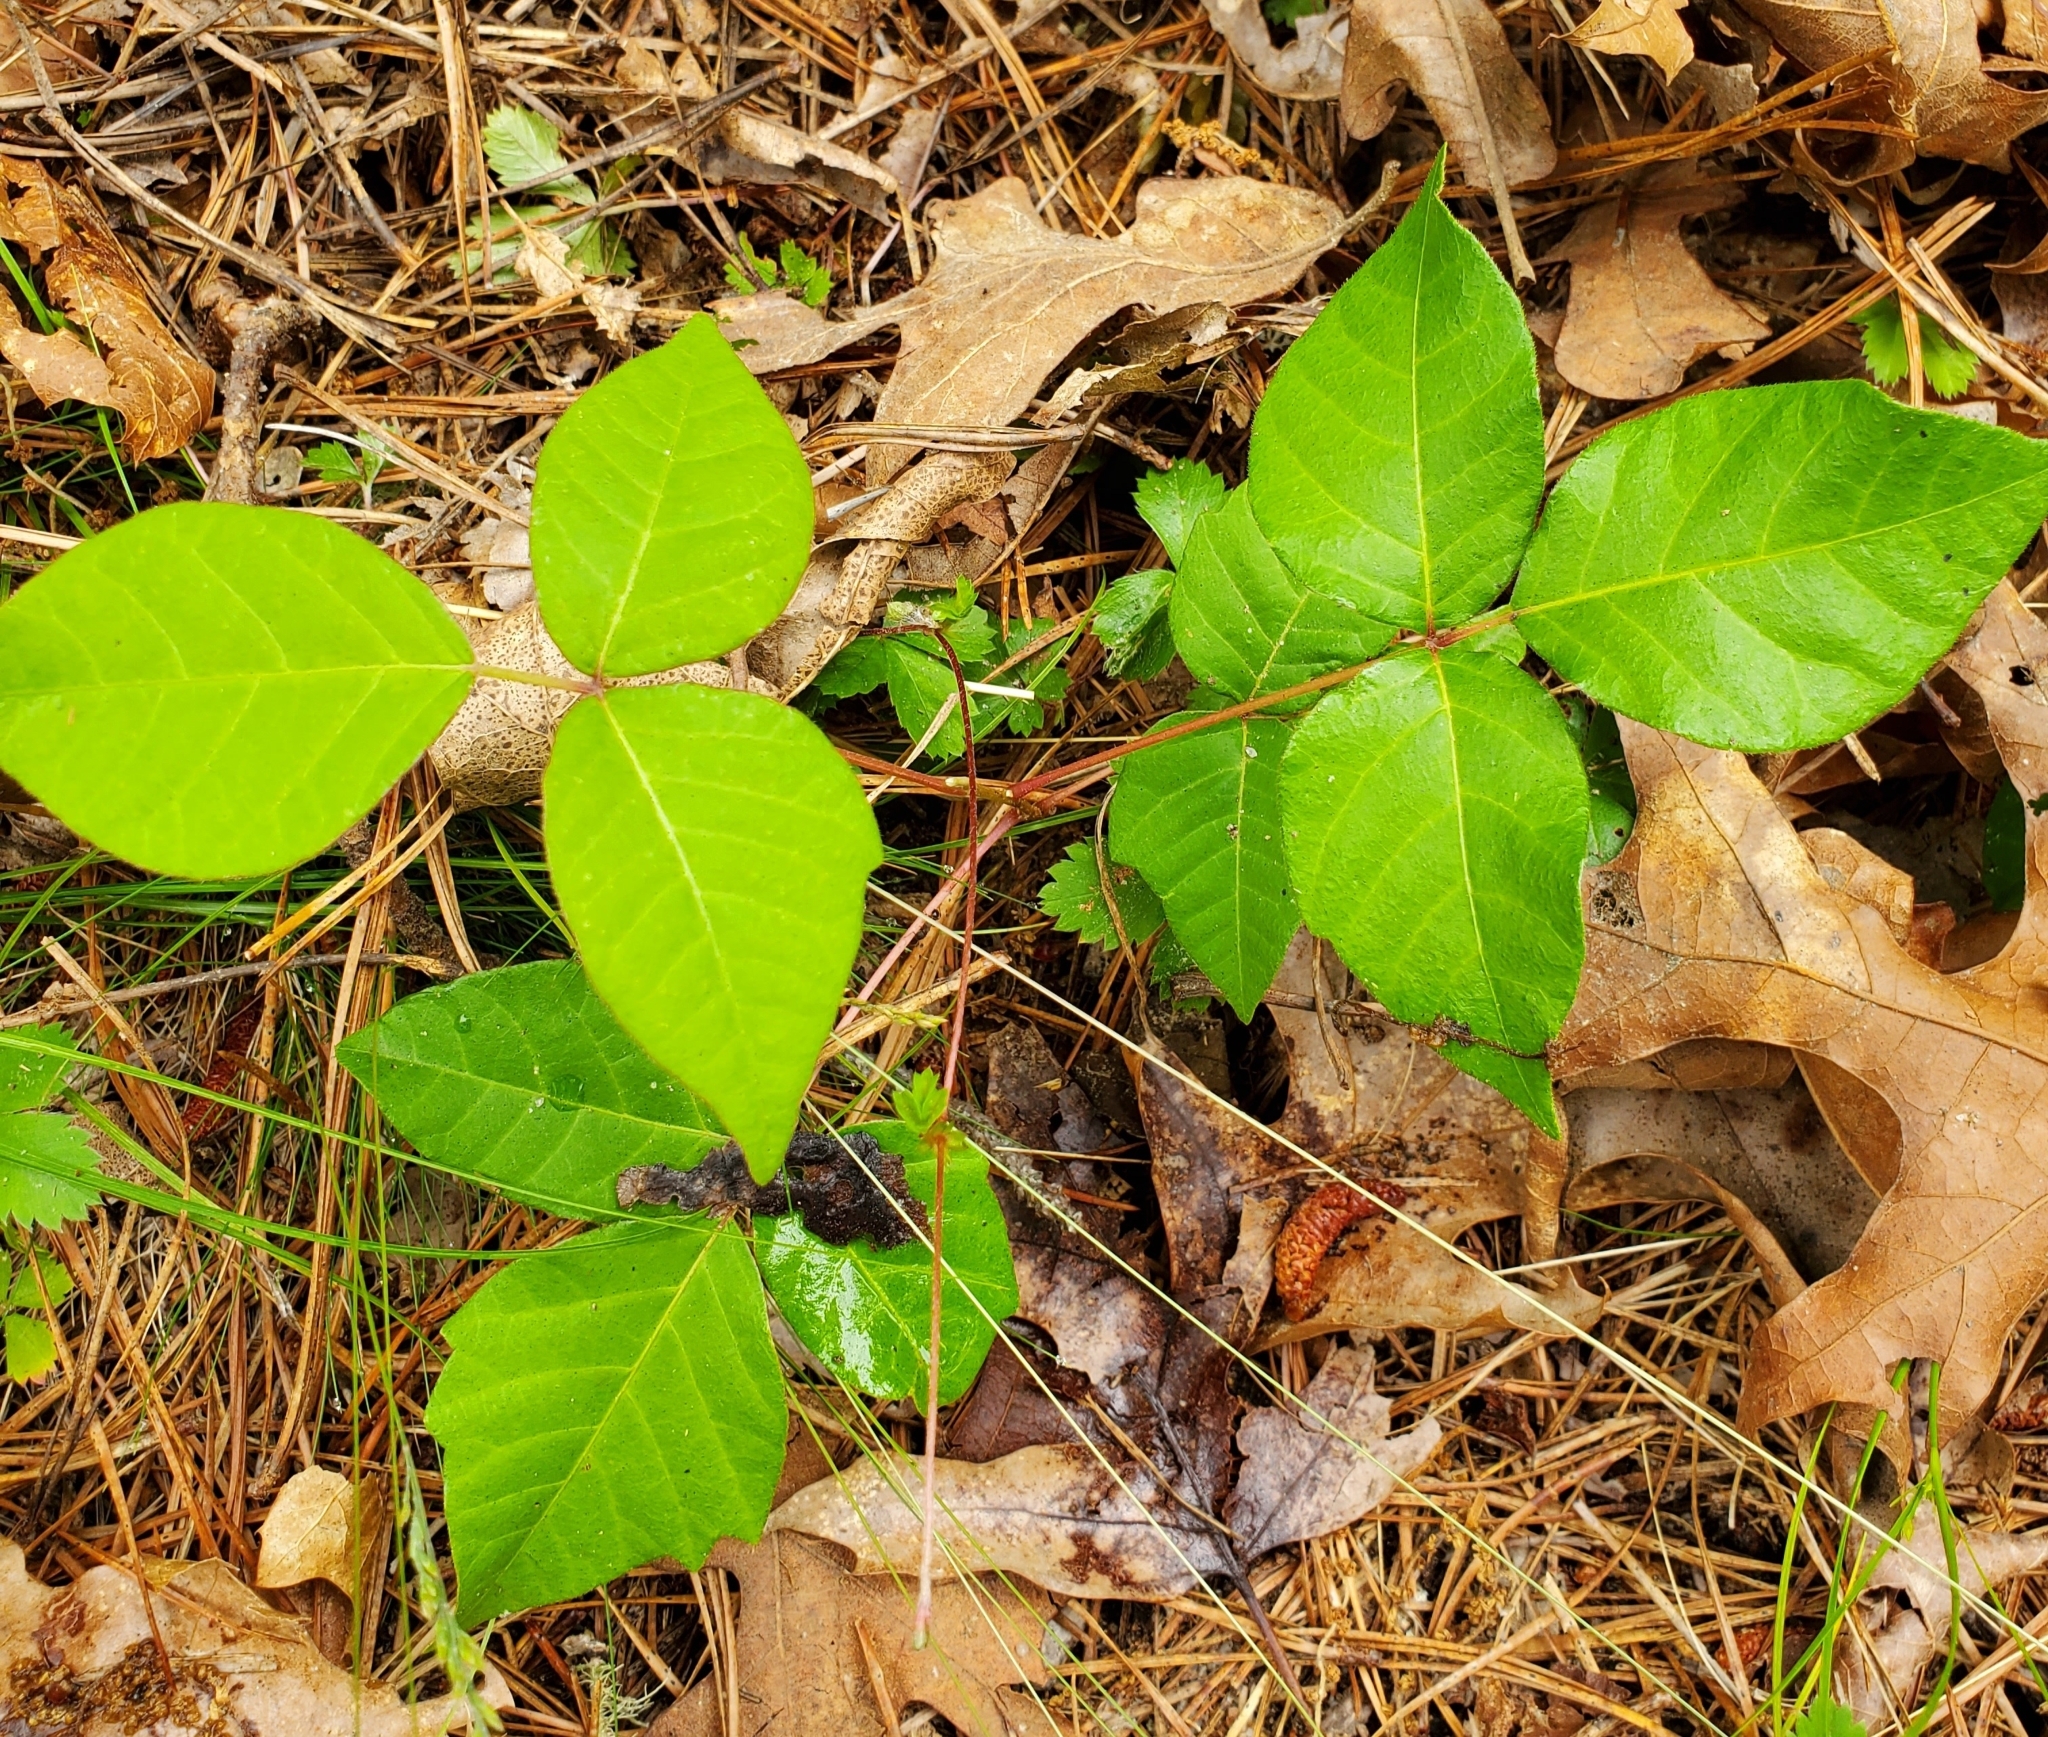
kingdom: Plantae
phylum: Tracheophyta
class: Magnoliopsida
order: Sapindales
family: Anacardiaceae
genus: Toxicodendron
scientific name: Toxicodendron radicans
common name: Poison ivy
